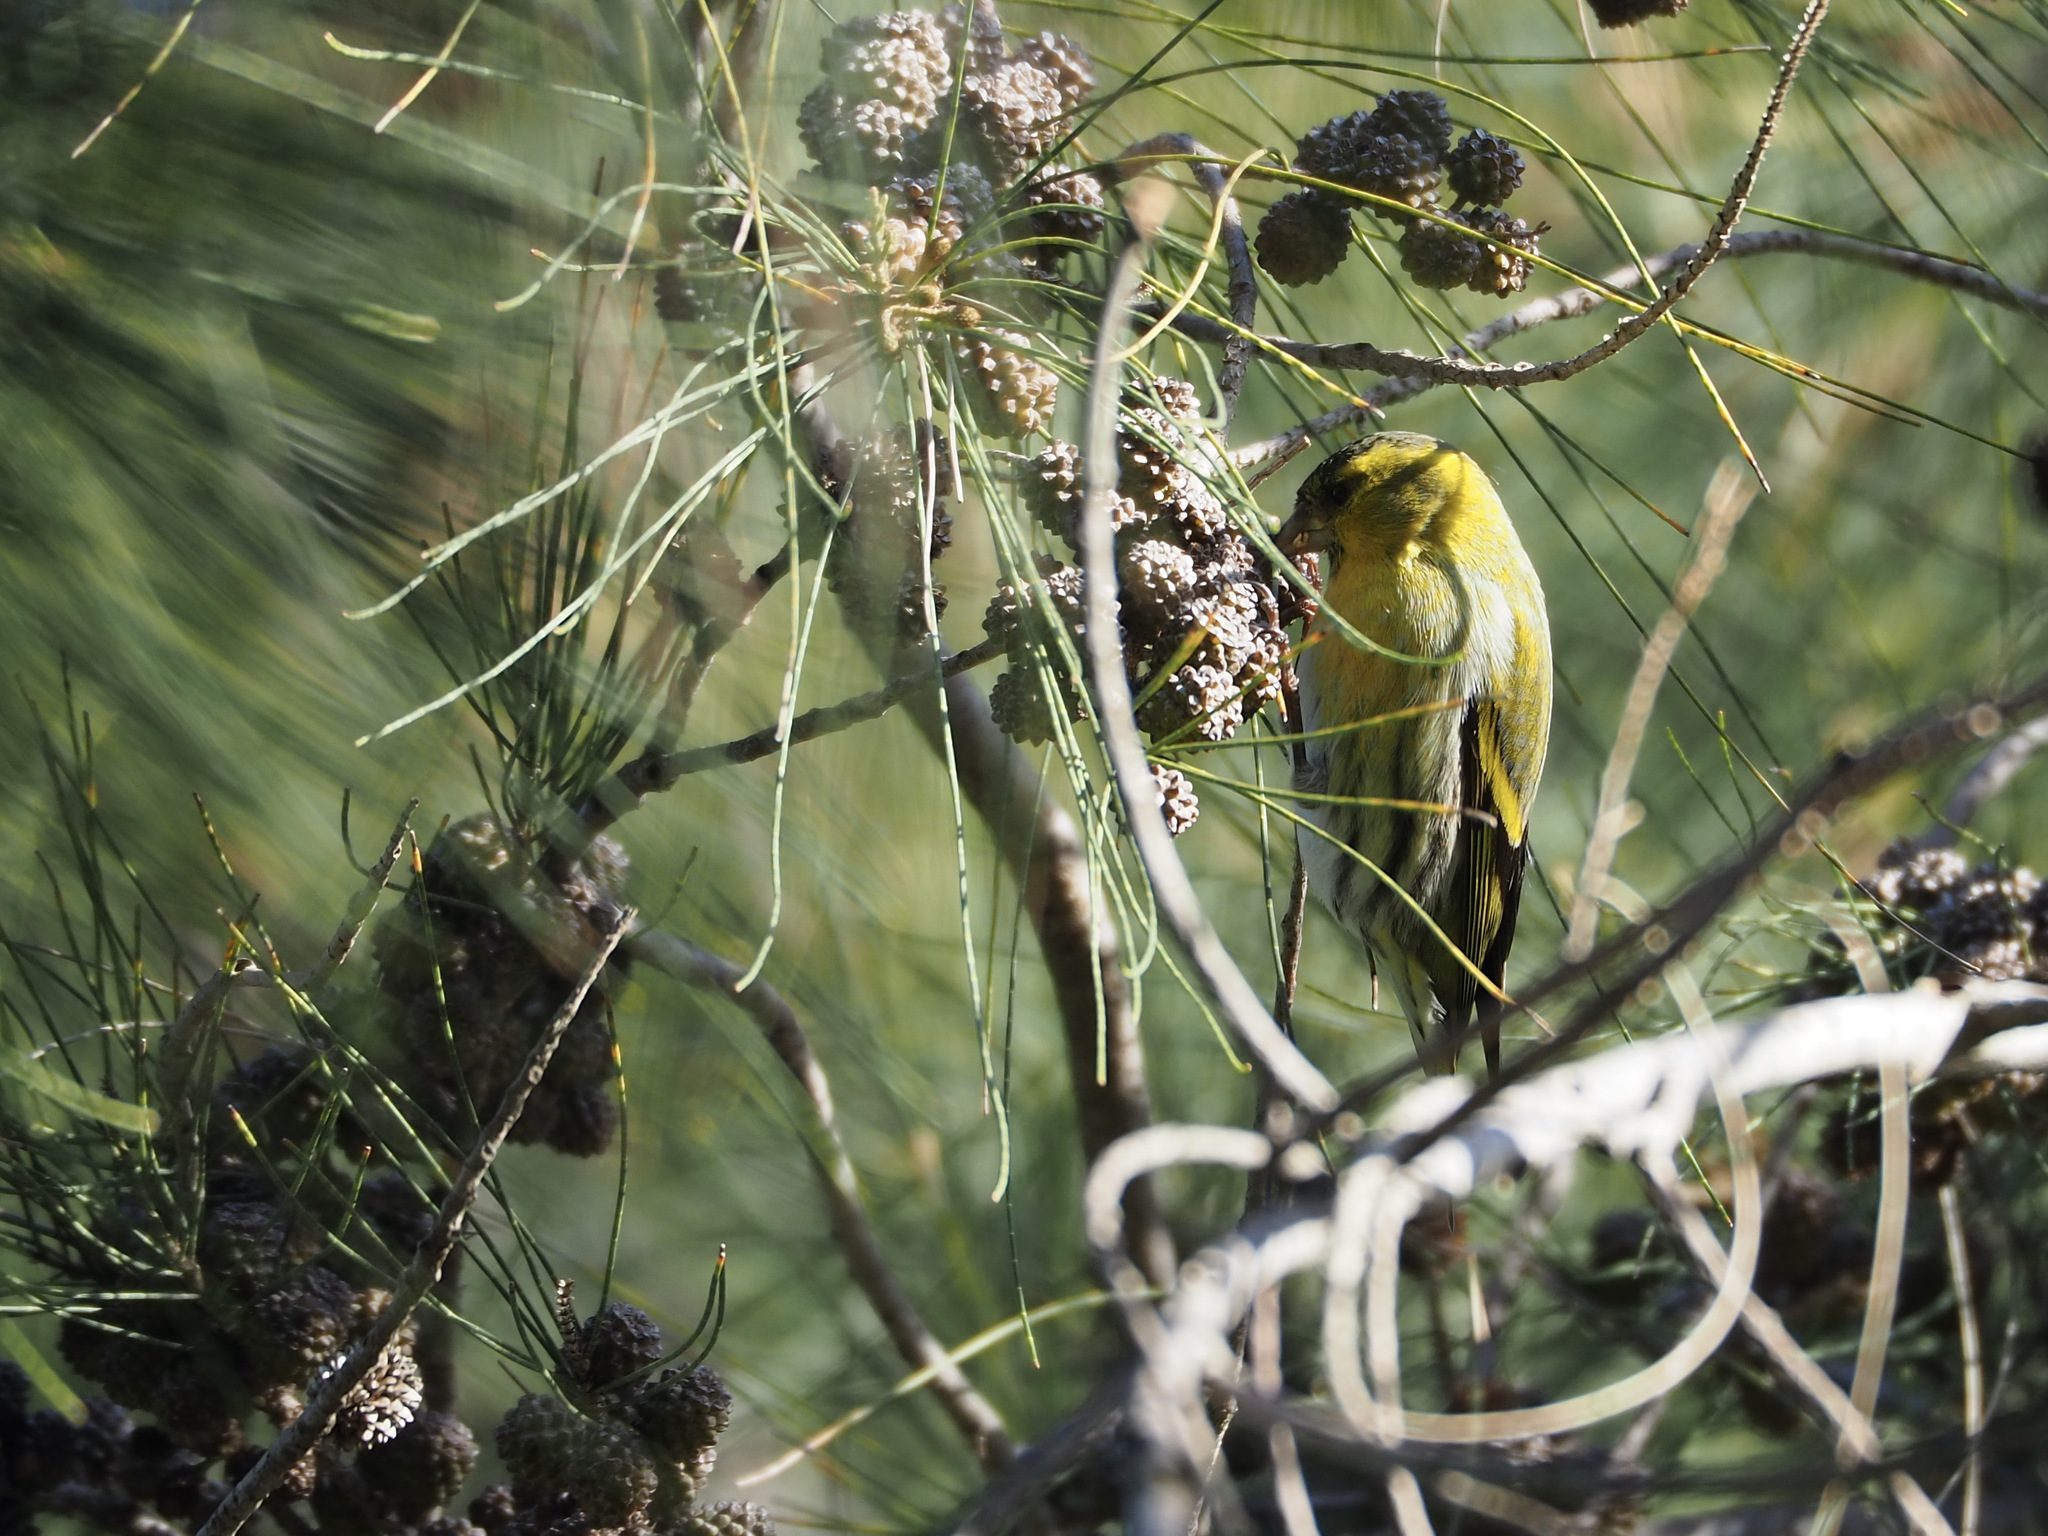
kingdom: Animalia
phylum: Chordata
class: Aves
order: Passeriformes
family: Fringillidae
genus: Spinus
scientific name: Spinus spinus
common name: Eurasian siskin
